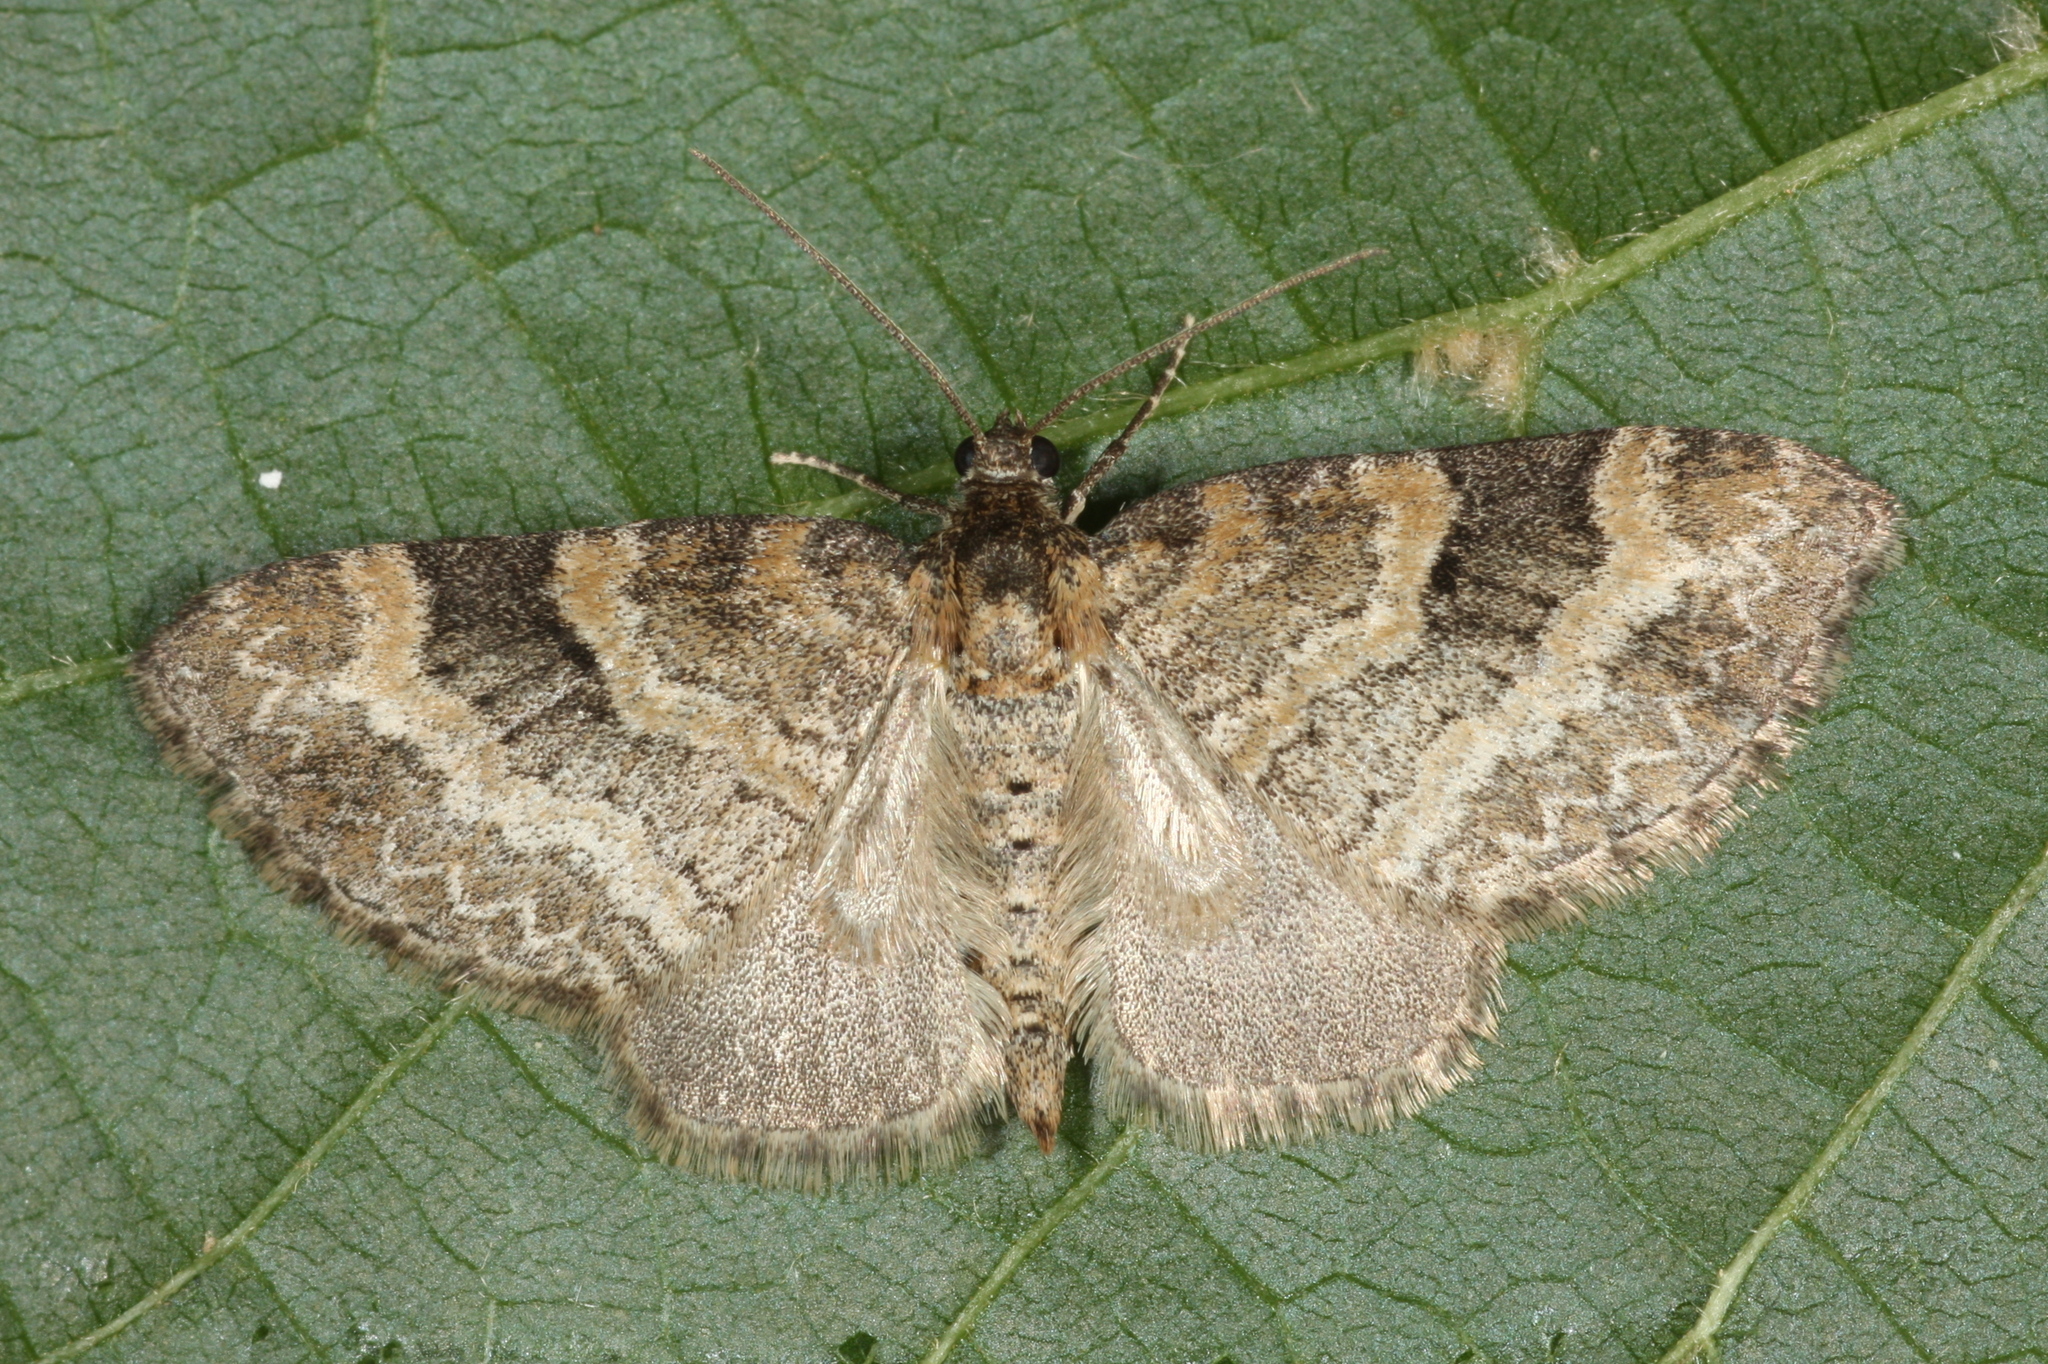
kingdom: Animalia
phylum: Arthropoda
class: Insecta
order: Lepidoptera
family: Geometridae
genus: Pterapherapteryx
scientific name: Pterapherapteryx sexalata
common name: Small seraphim
